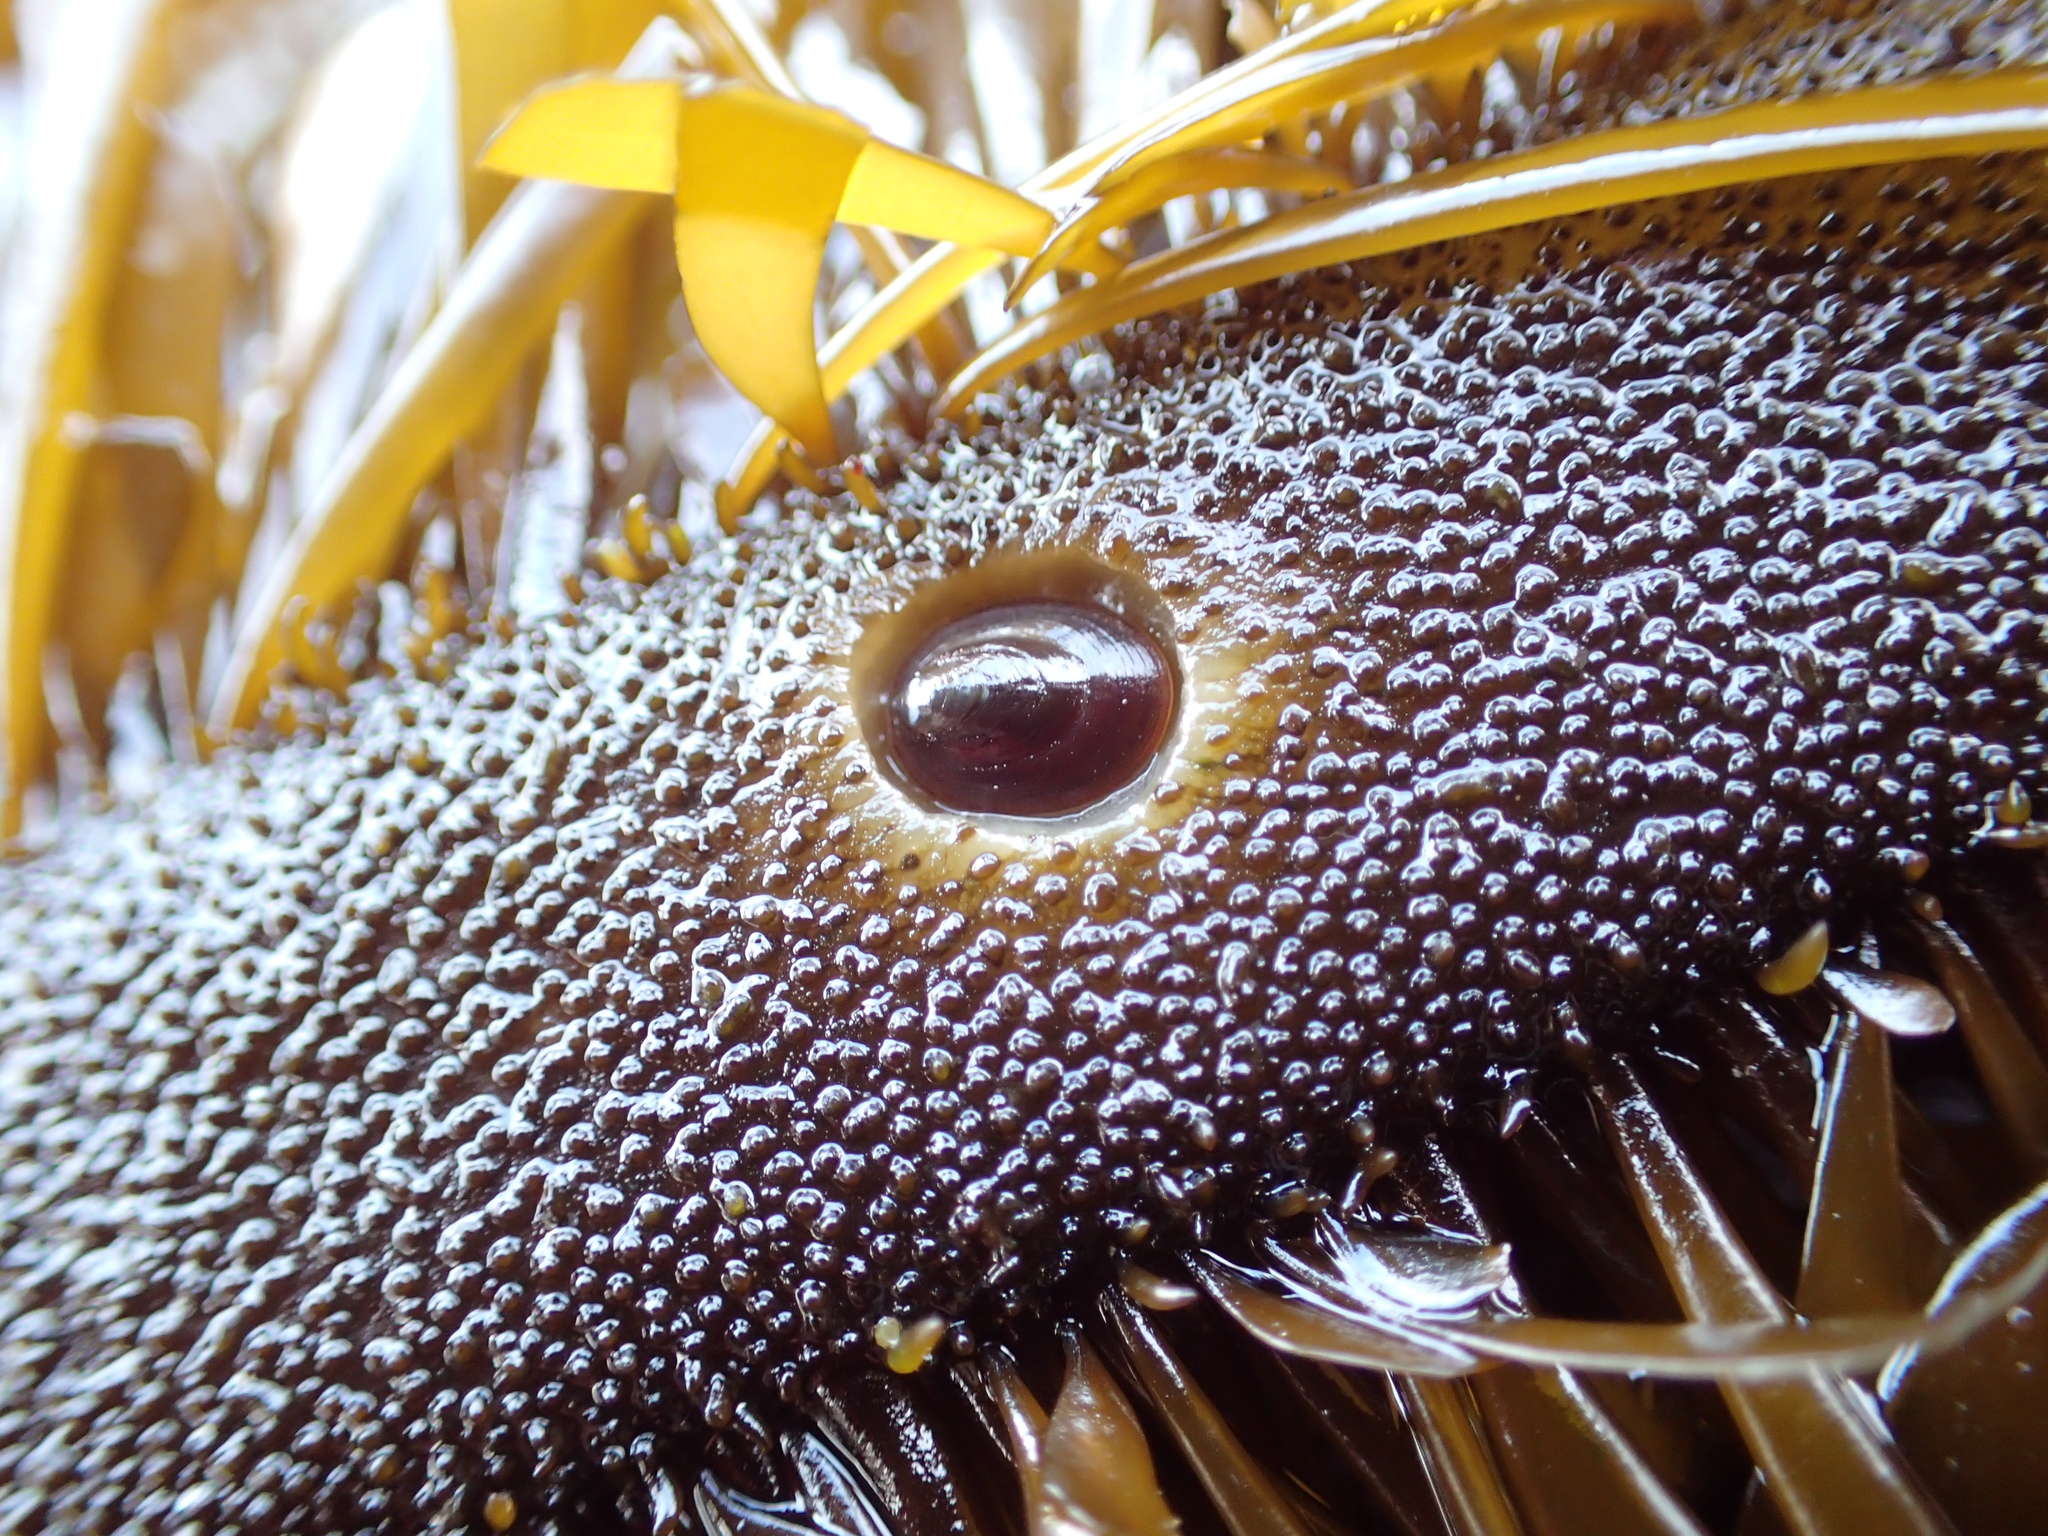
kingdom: Animalia
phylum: Mollusca
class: Gastropoda
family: Lottiidae
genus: Discurria
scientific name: Discurria insessa
